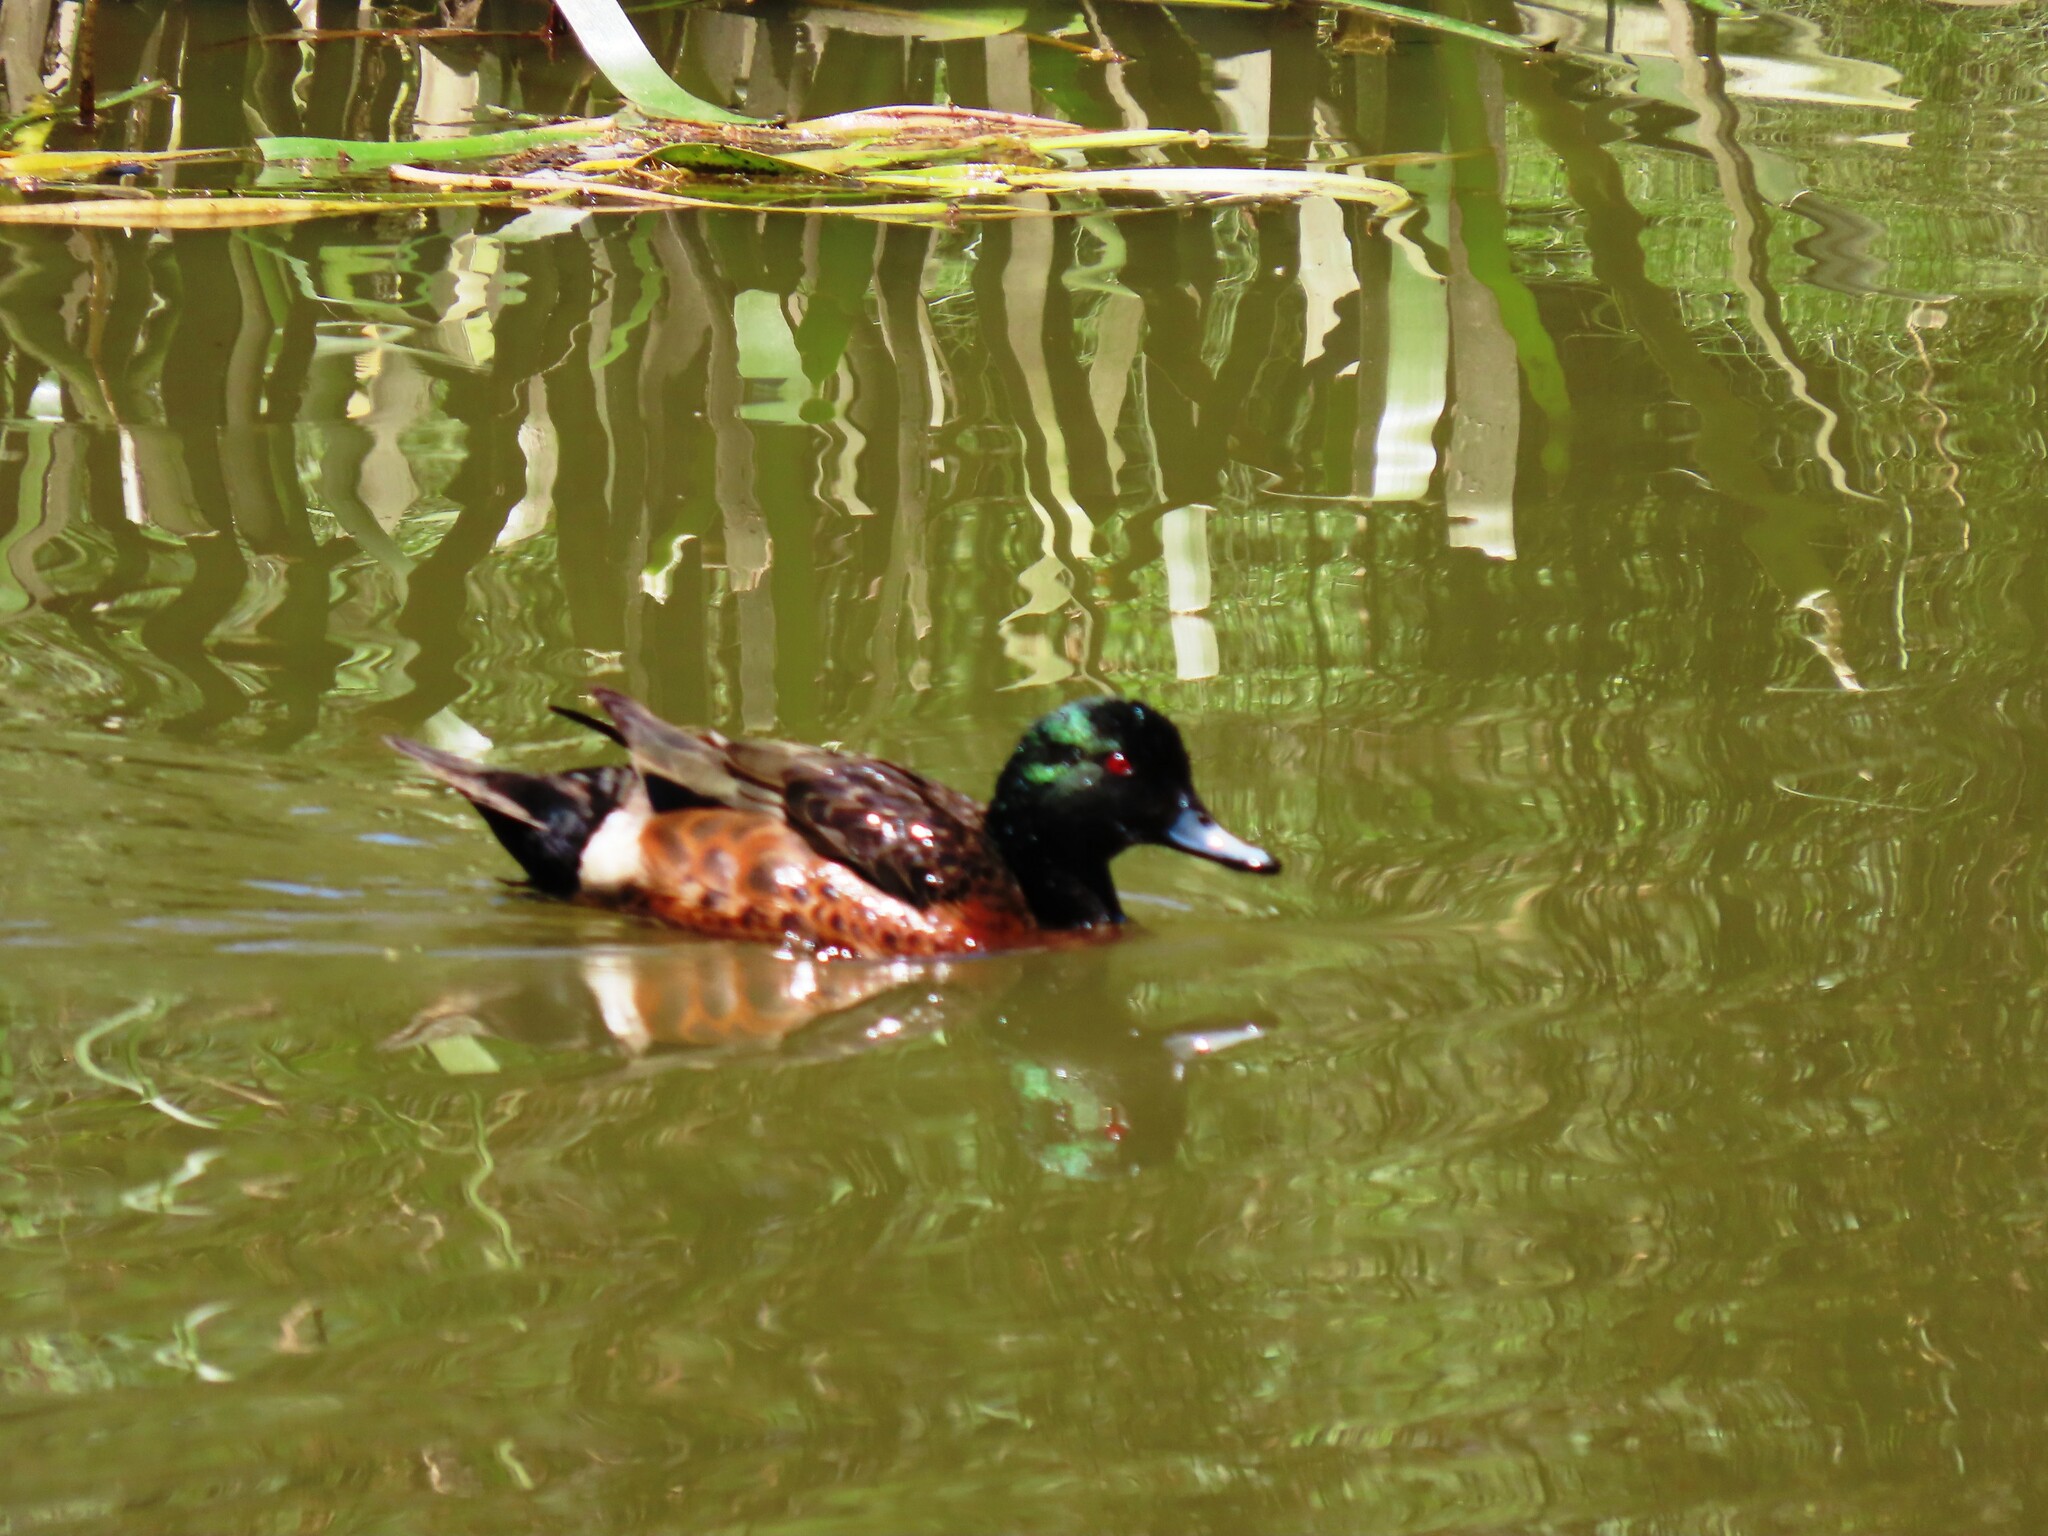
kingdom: Animalia
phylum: Chordata
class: Aves
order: Anseriformes
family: Anatidae
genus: Anas
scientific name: Anas castanea
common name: Chestnut teal
